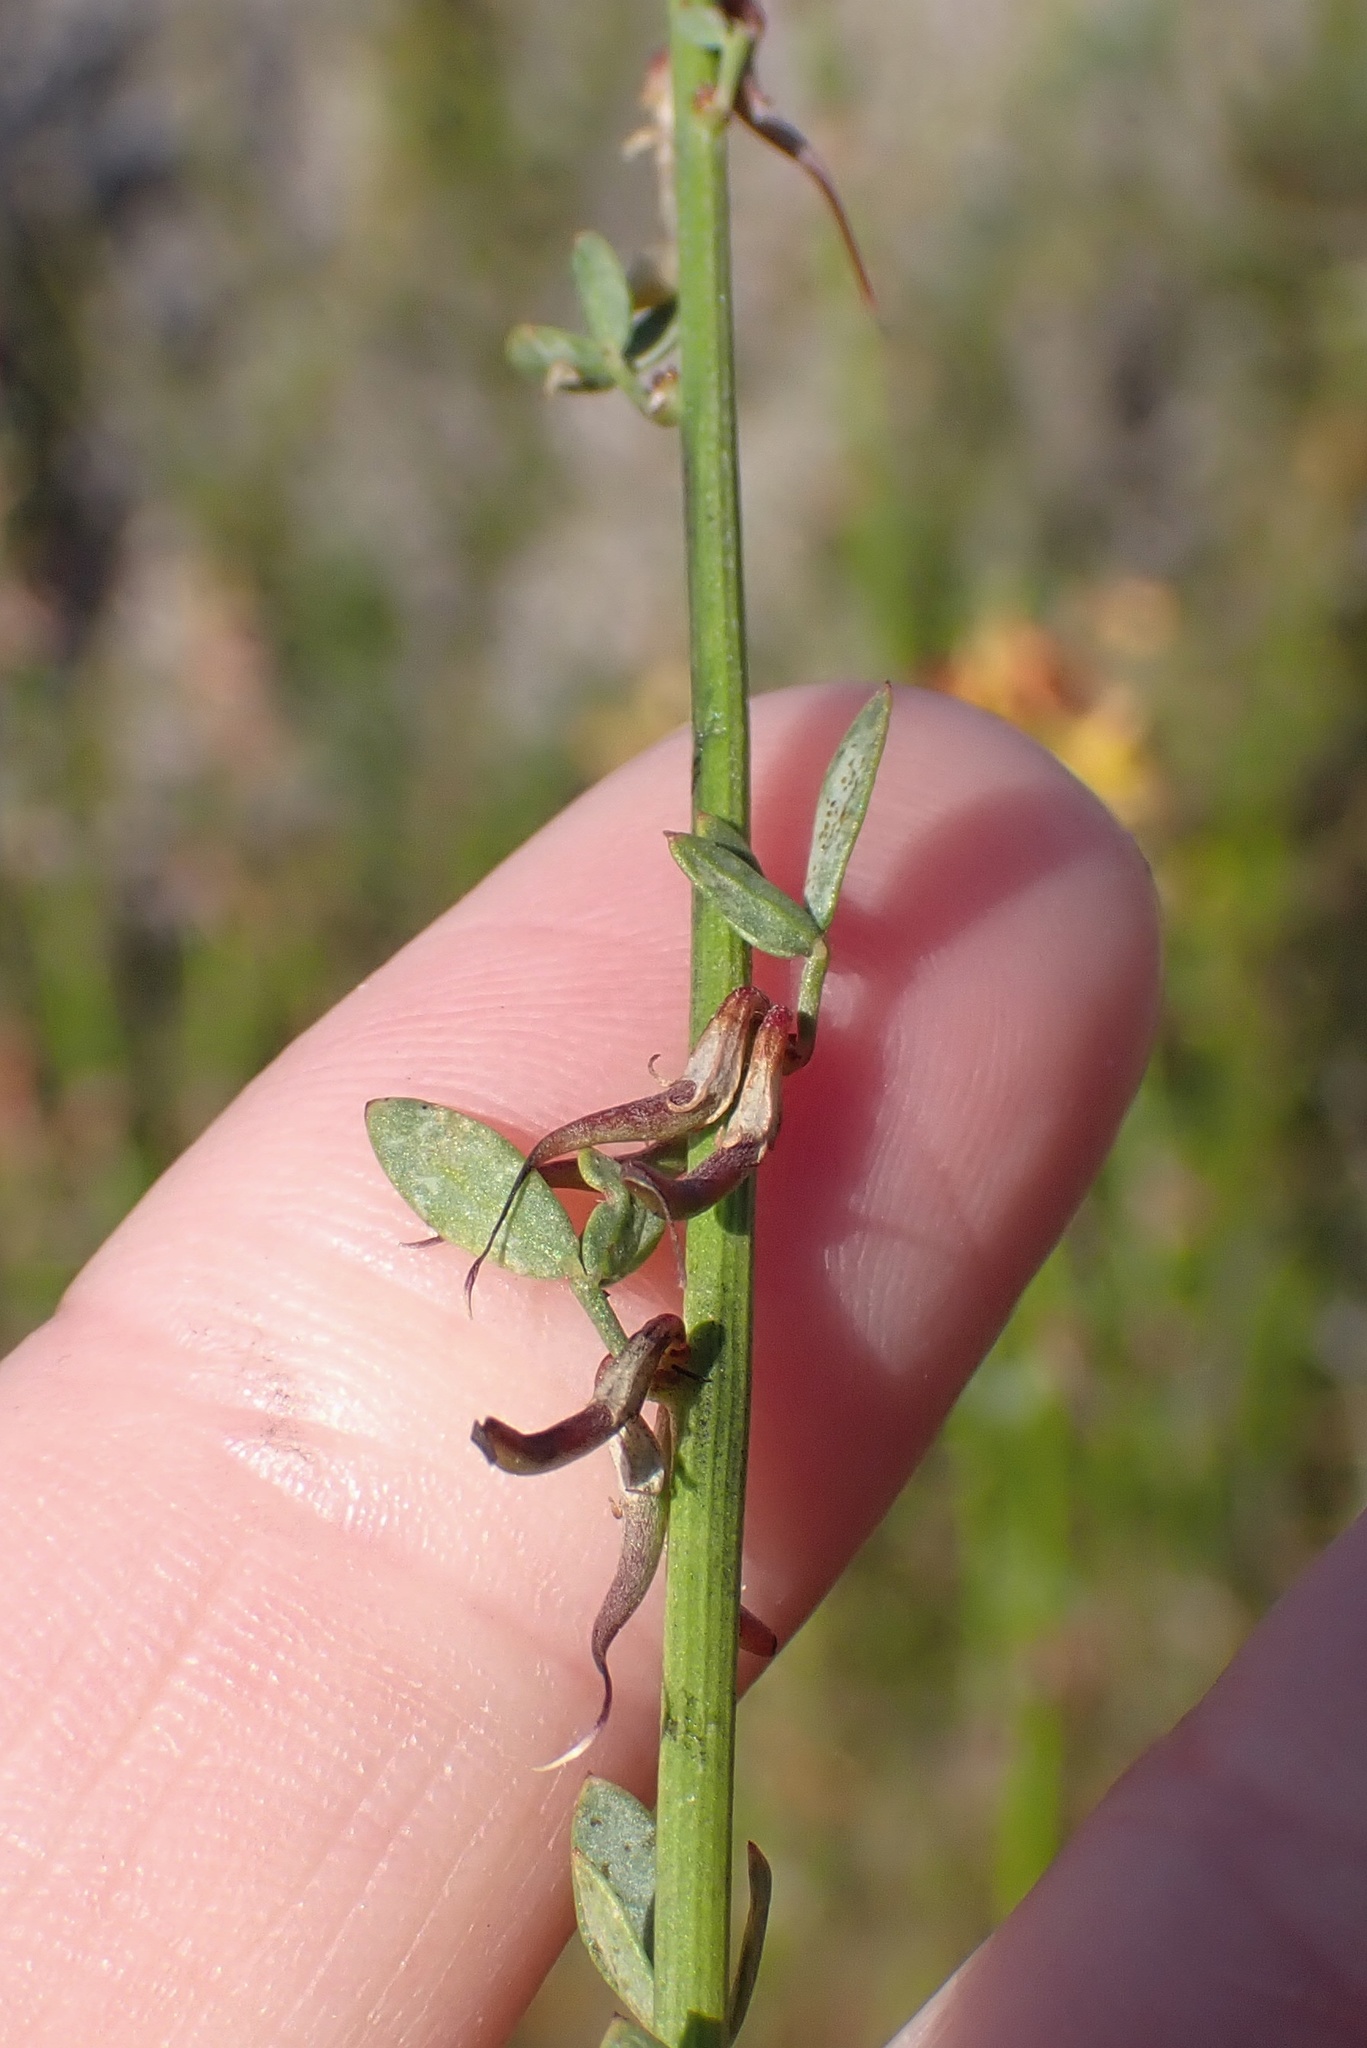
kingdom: Plantae
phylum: Tracheophyta
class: Magnoliopsida
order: Fabales
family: Fabaceae
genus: Acmispon
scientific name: Acmispon glaber
